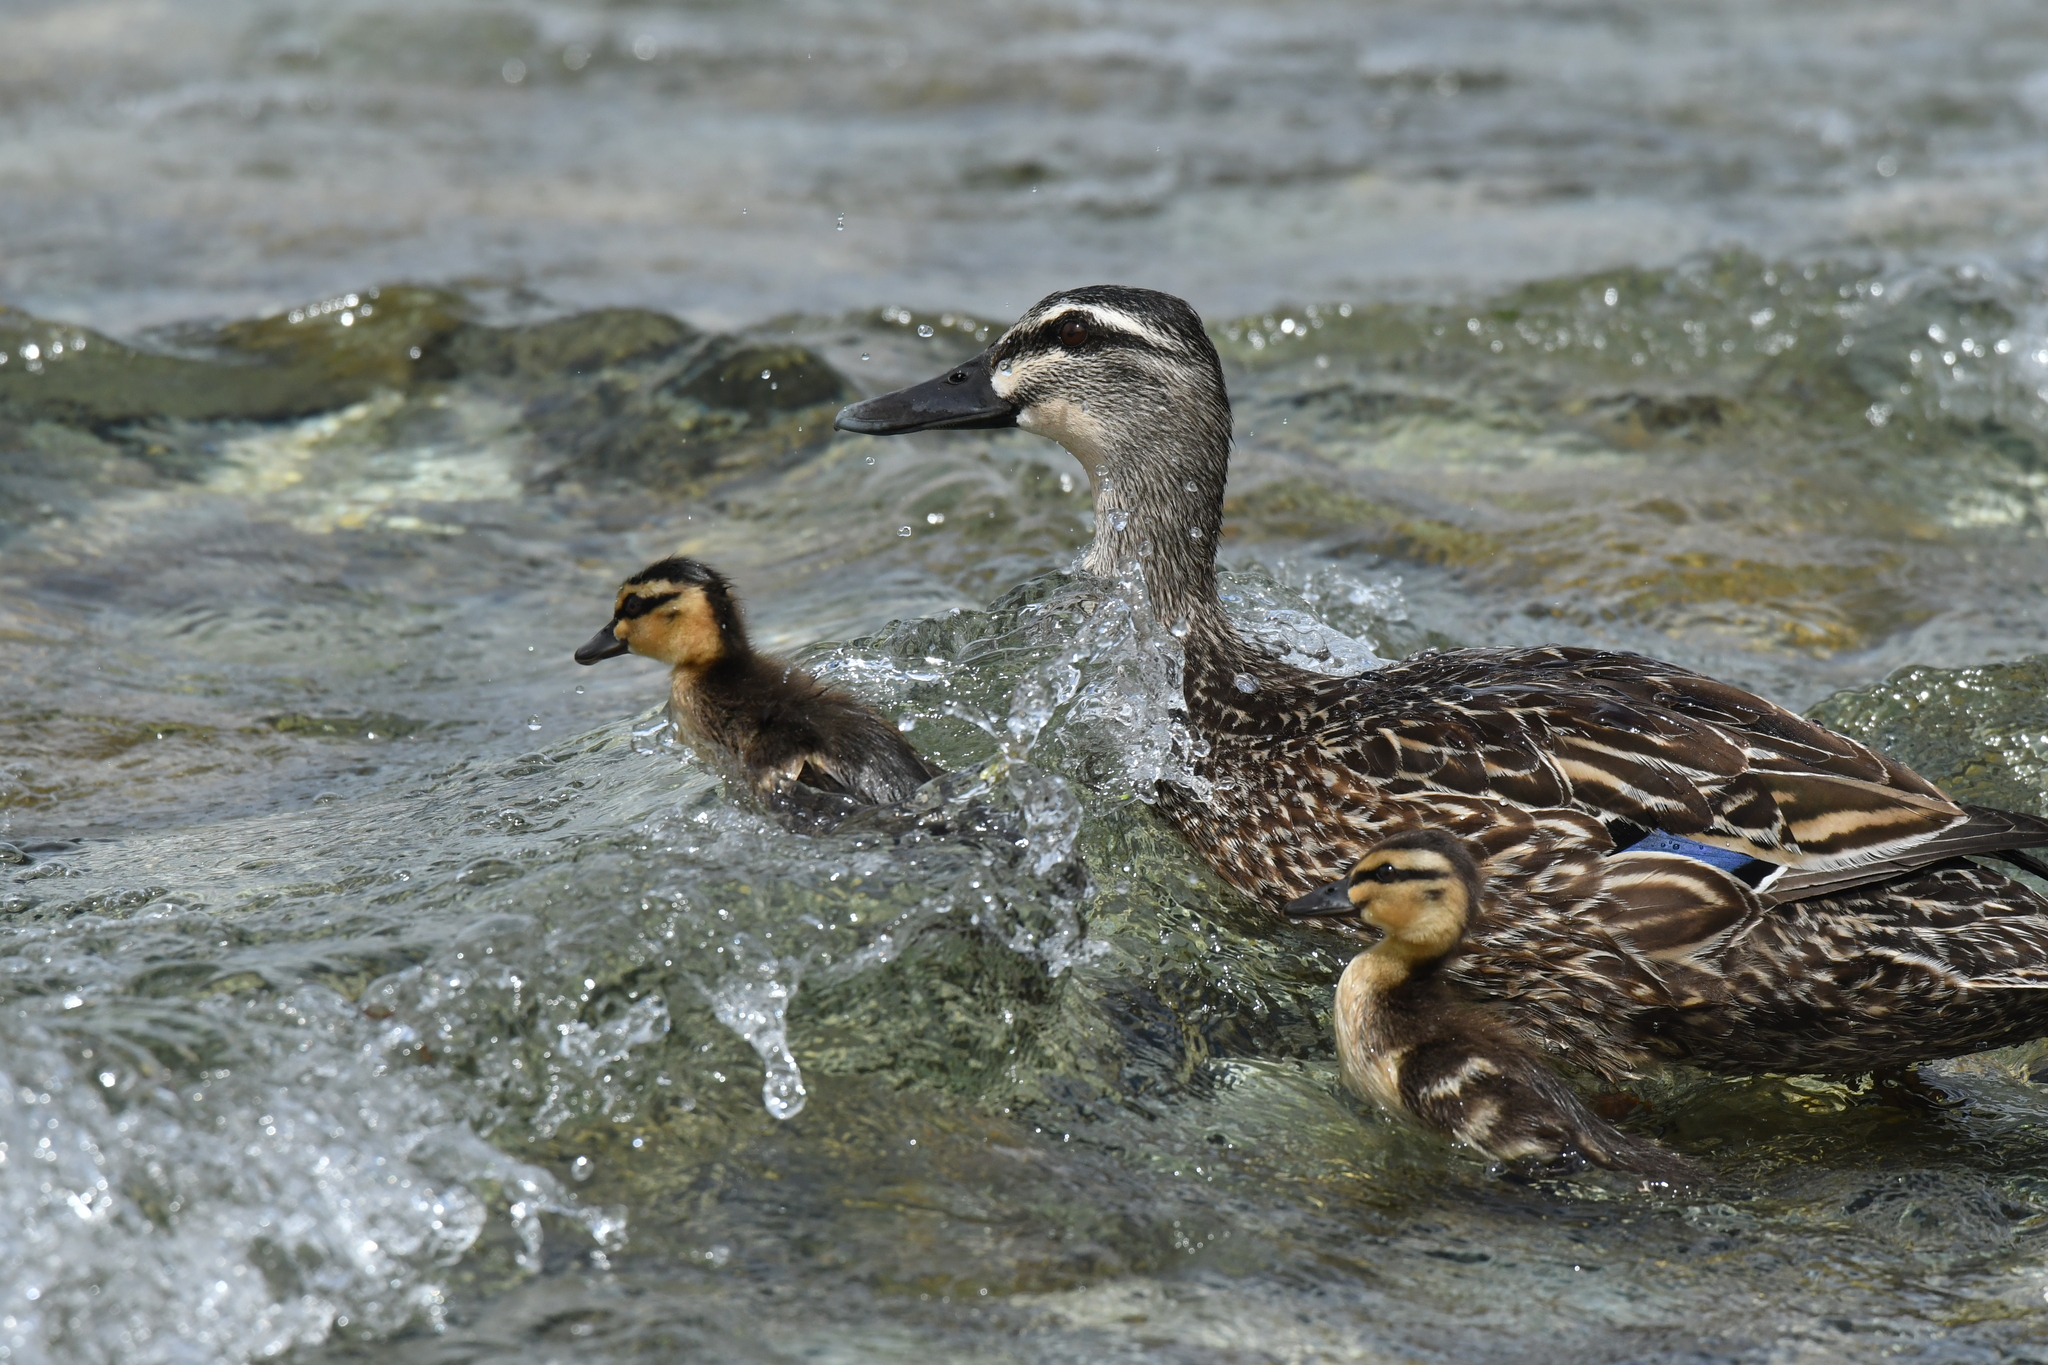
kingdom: Animalia
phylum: Chordata
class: Aves
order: Anseriformes
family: Anatidae
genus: Anas
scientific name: Anas
